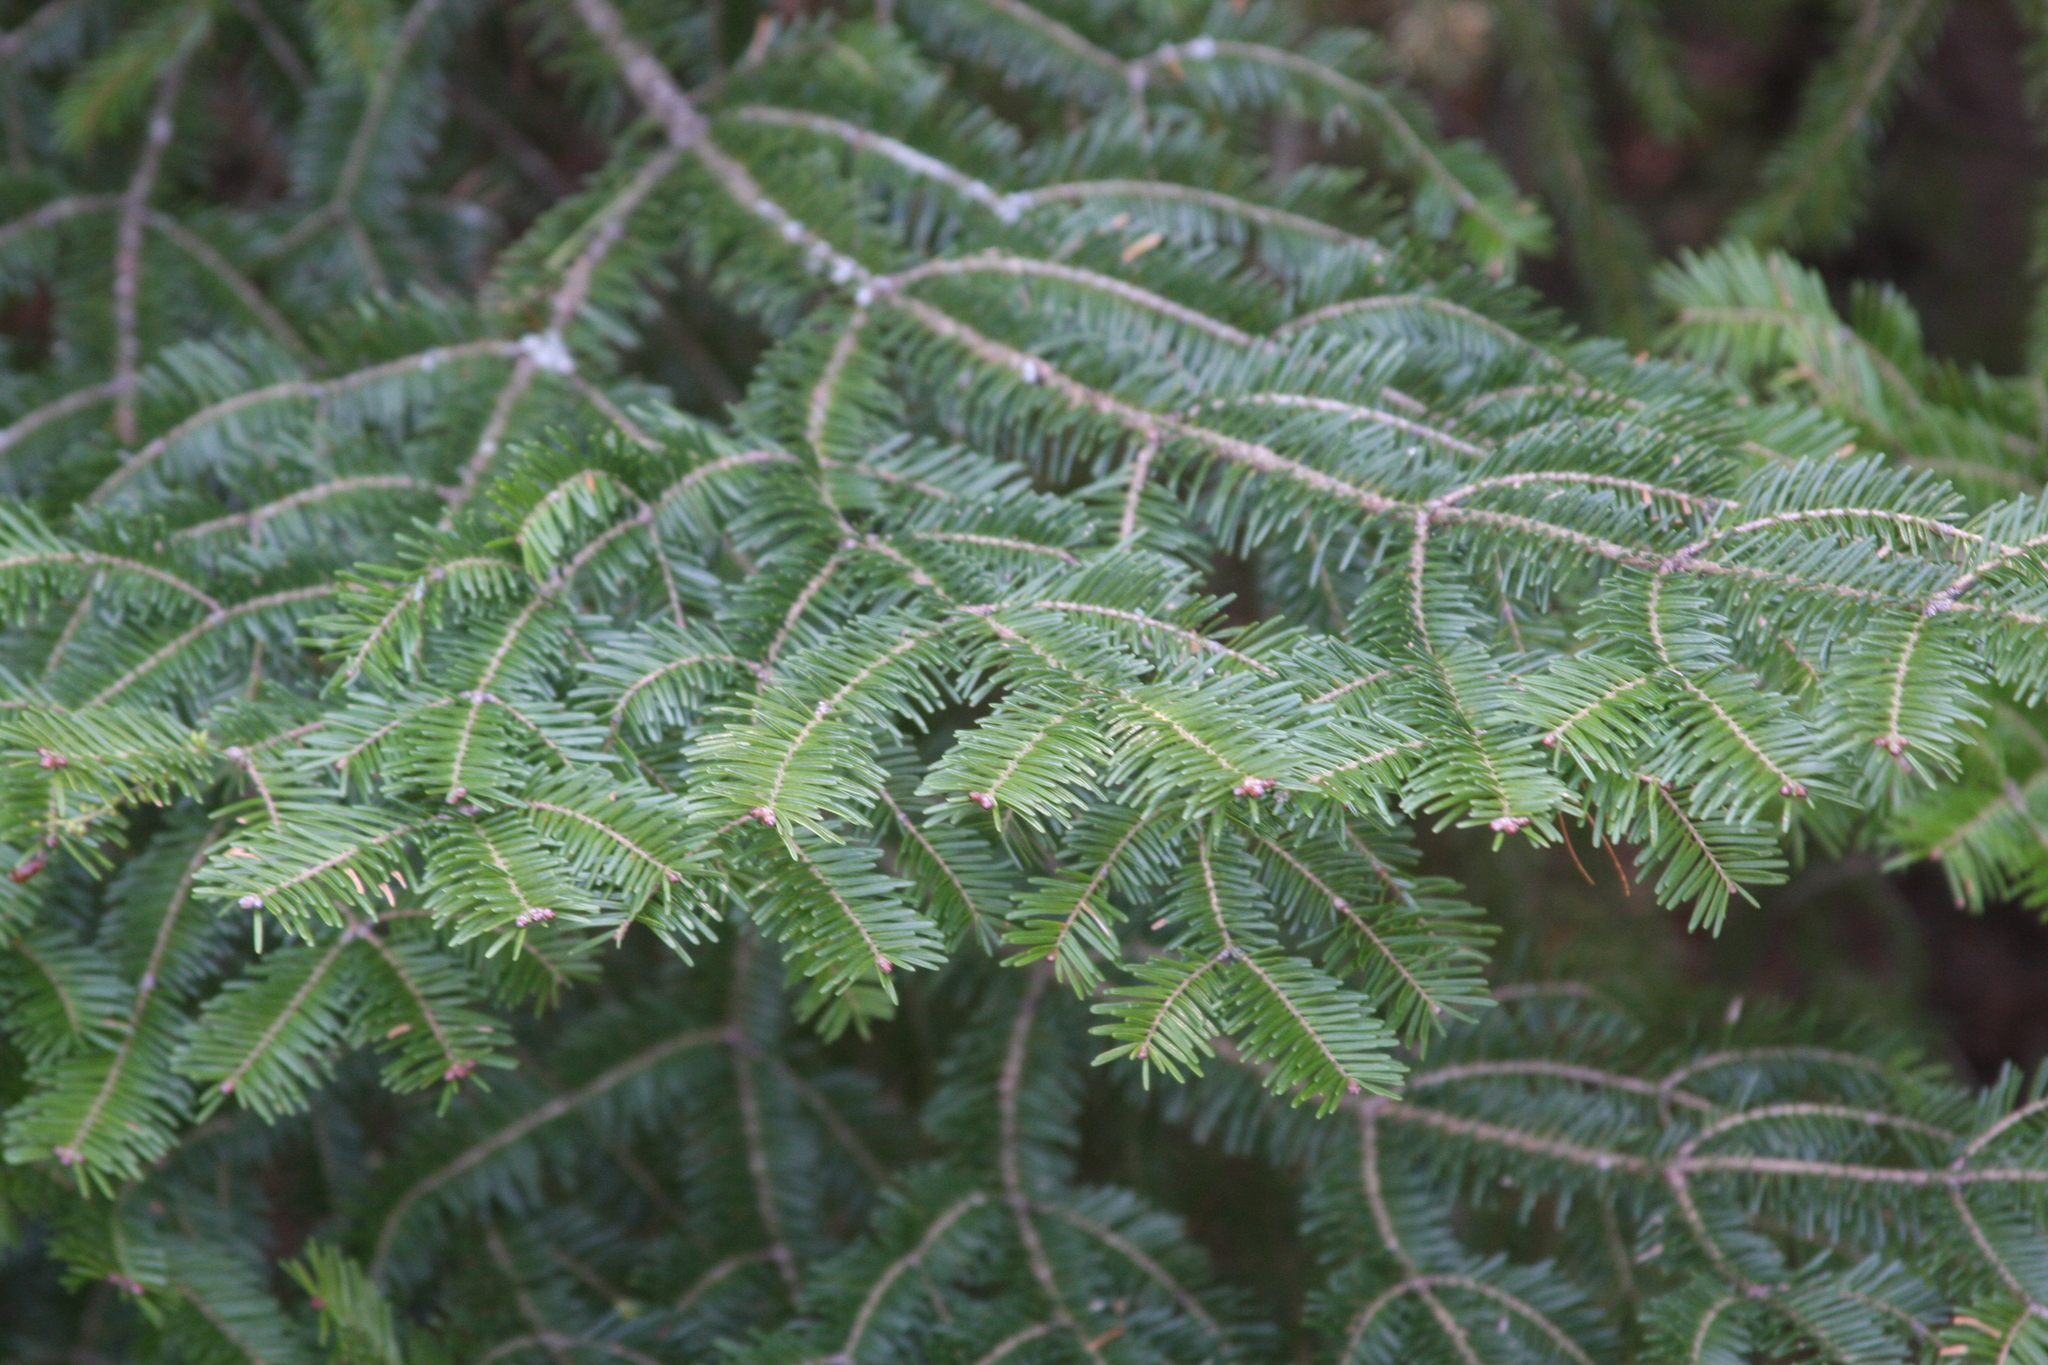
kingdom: Plantae
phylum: Tracheophyta
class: Pinopsida
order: Pinales
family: Pinaceae
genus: Abies
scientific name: Abies balsamea
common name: Balsam fir
